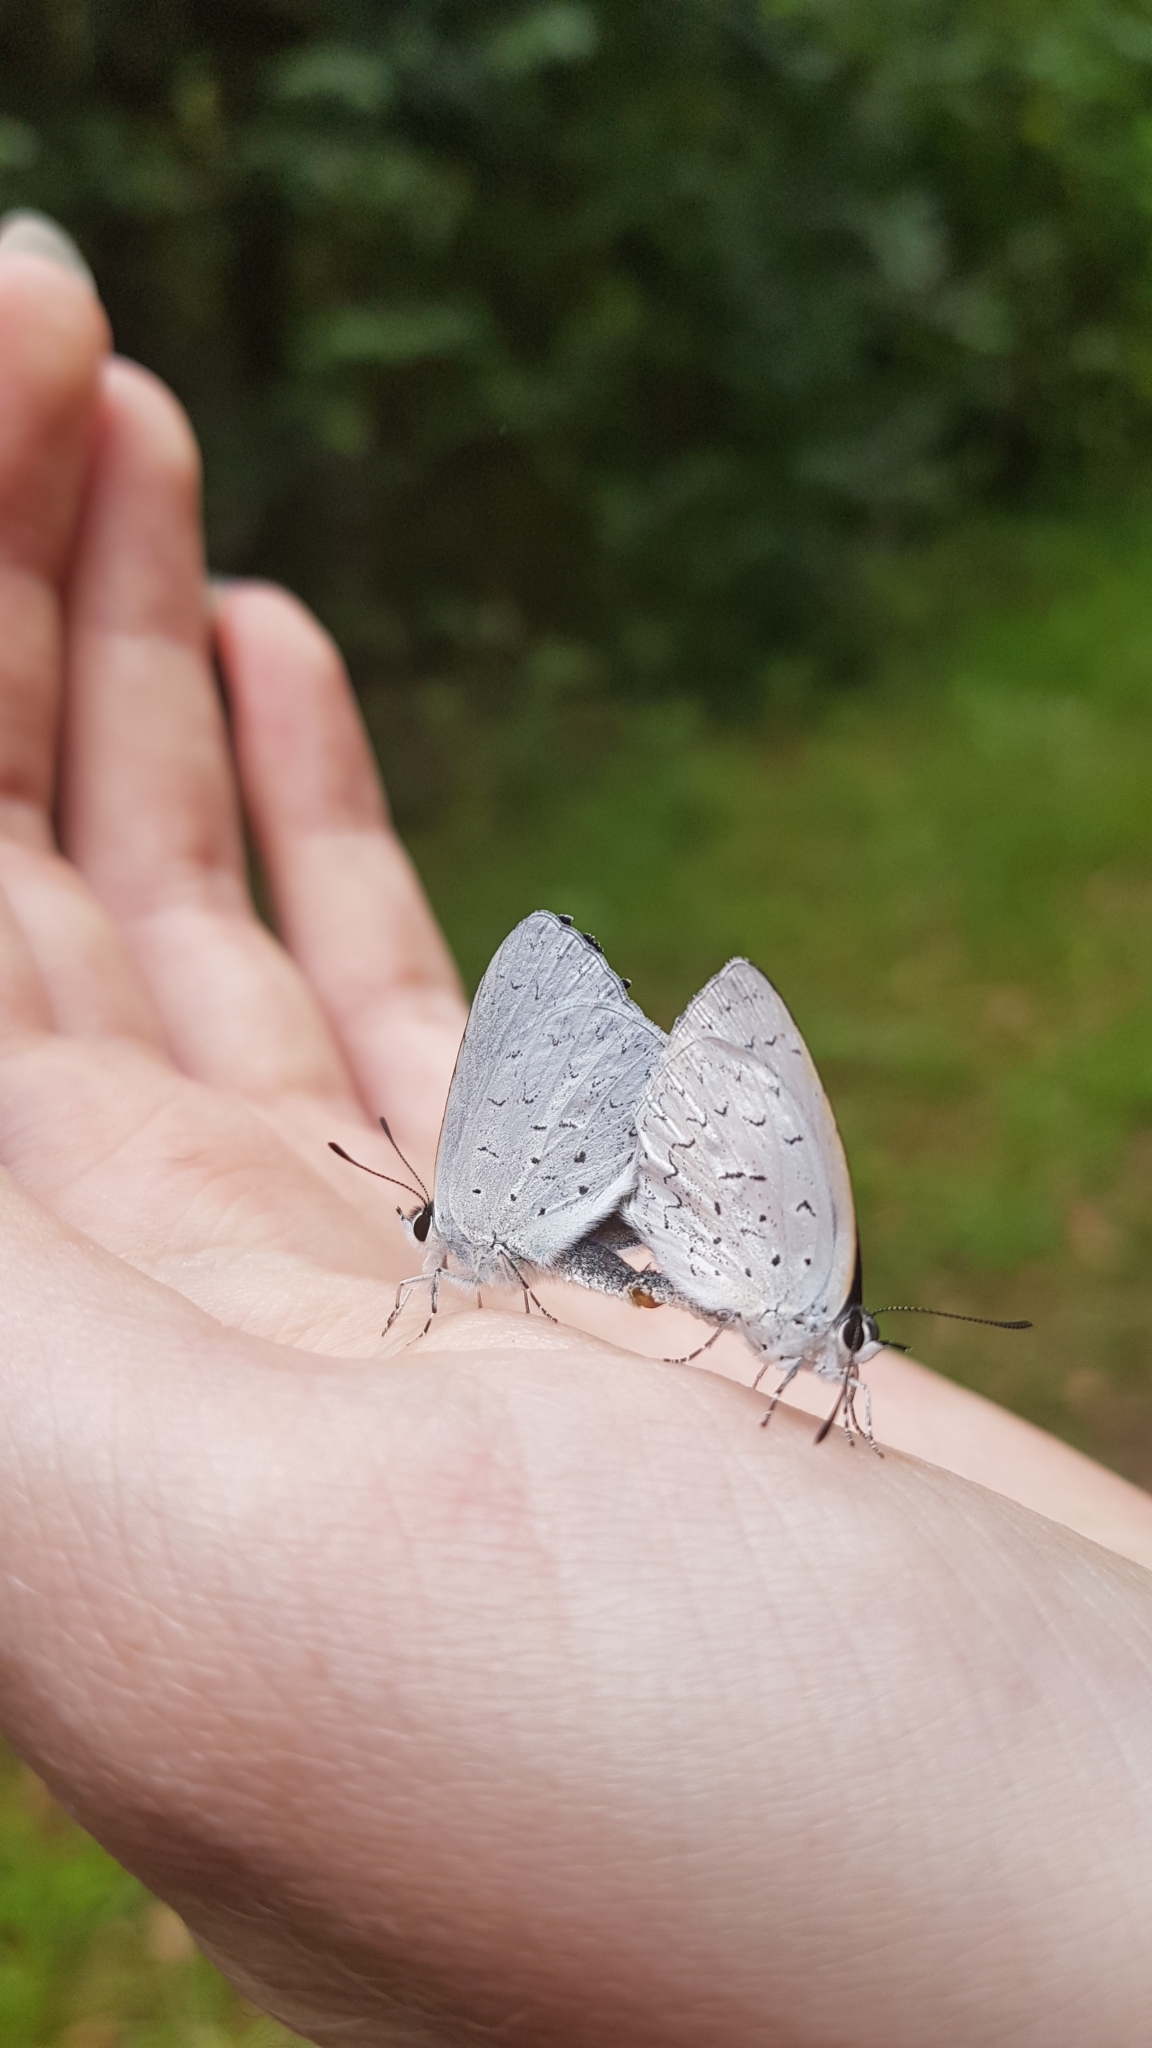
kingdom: Animalia
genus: Eirmocides
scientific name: Eirmocides
